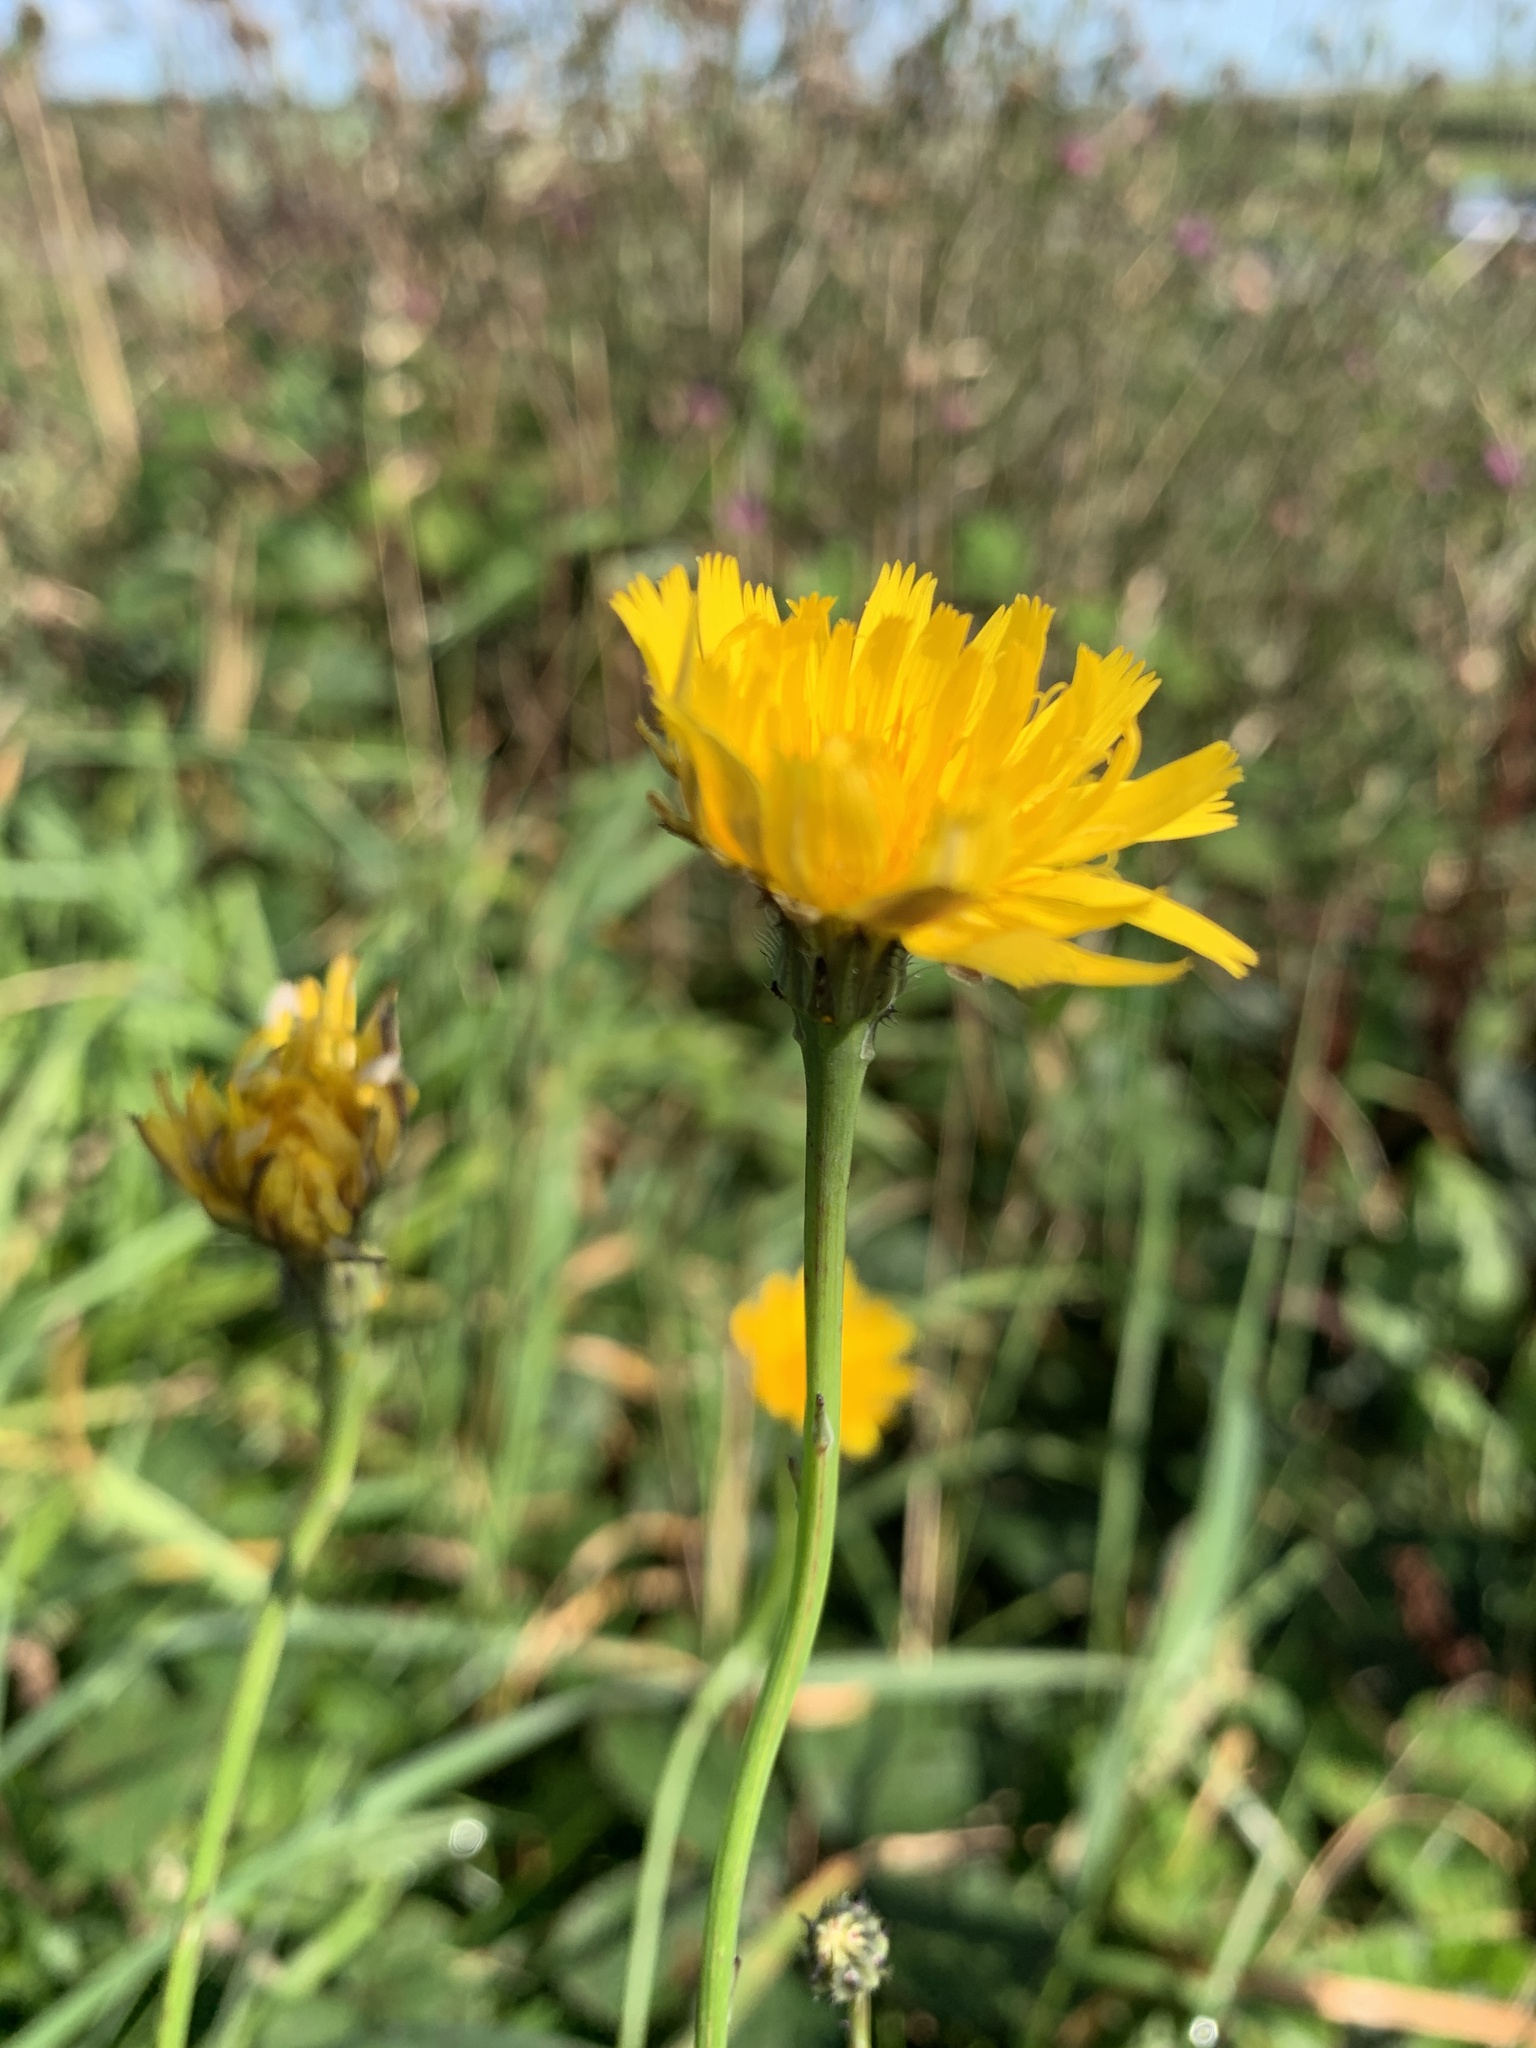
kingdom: Plantae
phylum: Tracheophyta
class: Magnoliopsida
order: Asterales
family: Asteraceae
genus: Hypochaeris
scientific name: Hypochaeris radicata
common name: Flatweed
